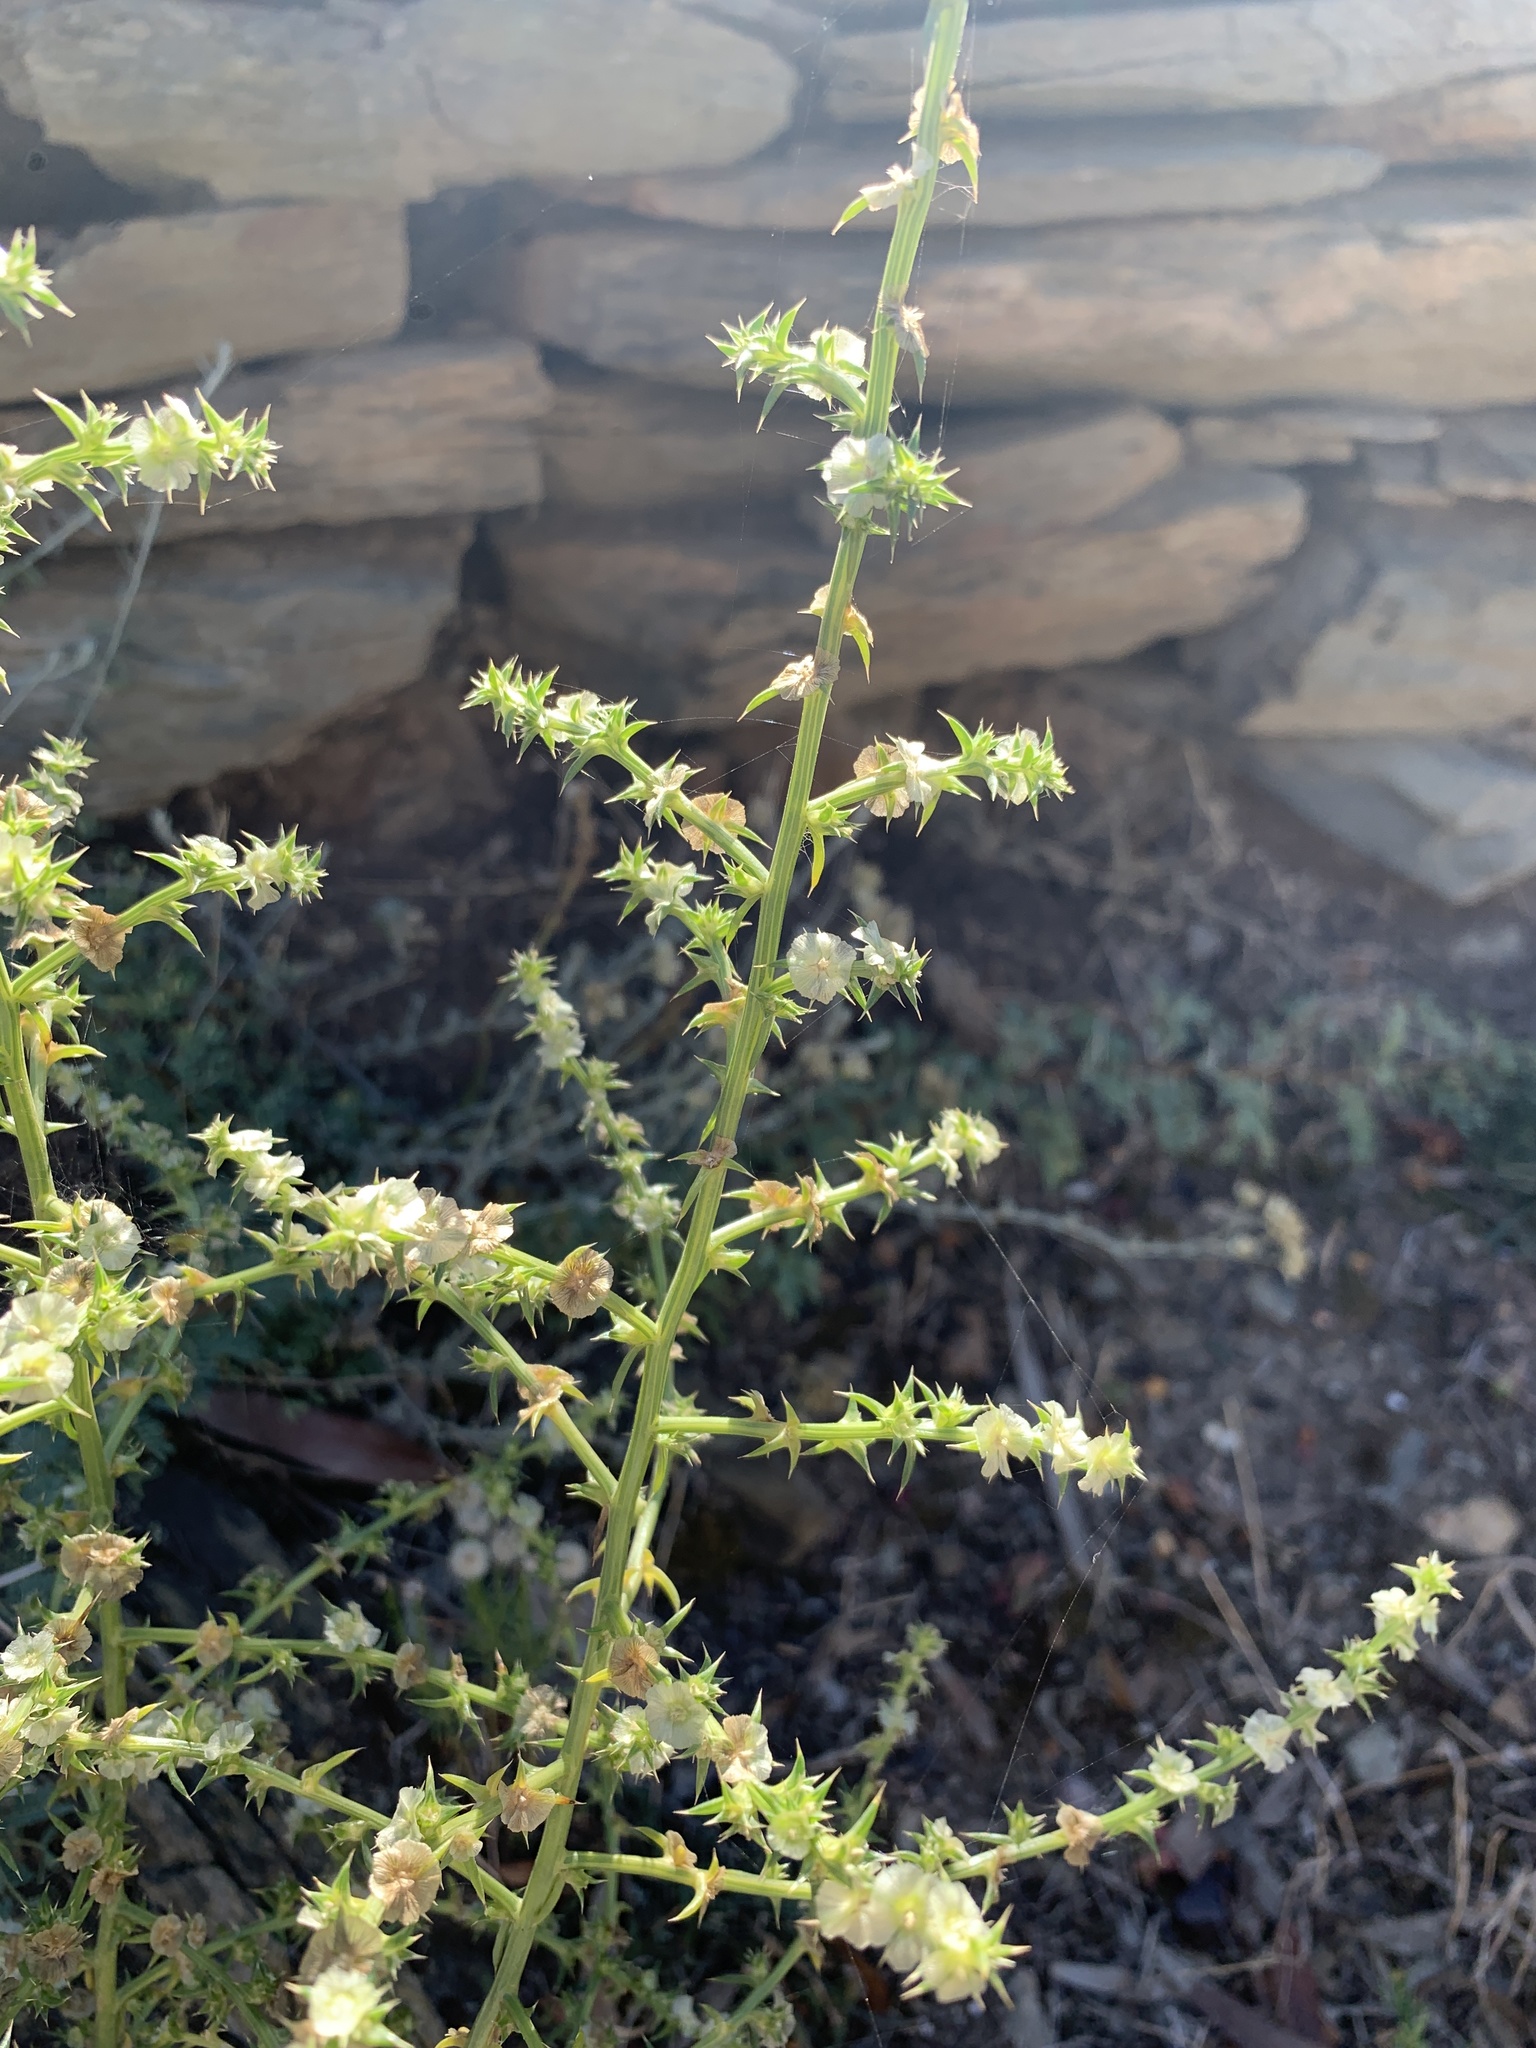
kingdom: Plantae
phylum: Tracheophyta
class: Magnoliopsida
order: Caryophyllales
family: Amaranthaceae
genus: Salsola
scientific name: Salsola kali
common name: Saltwort
